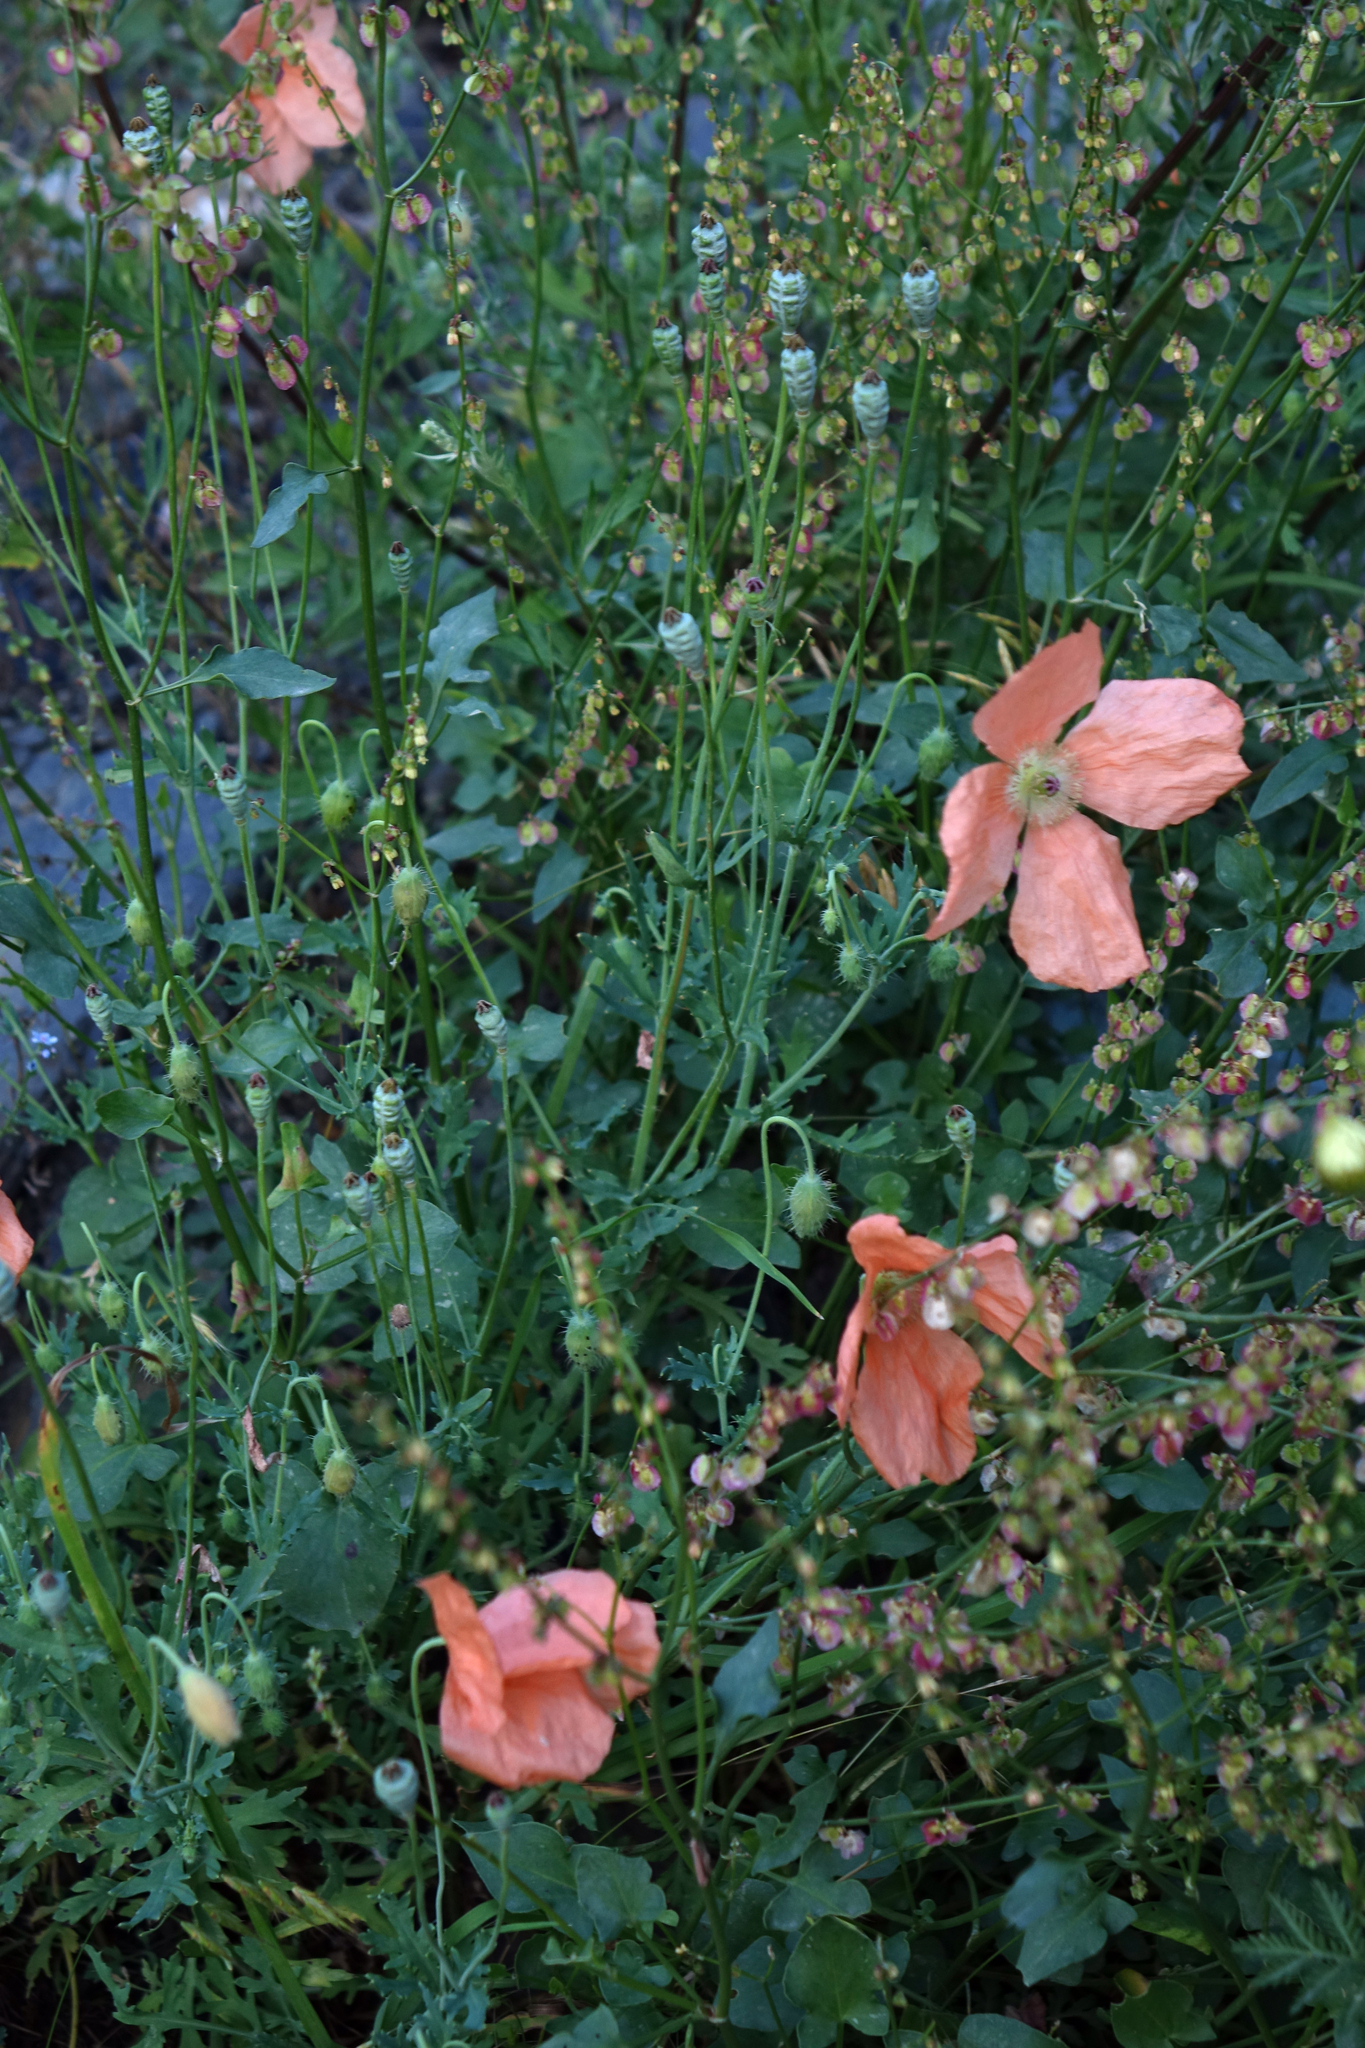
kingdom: Plantae
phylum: Tracheophyta
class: Magnoliopsida
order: Ranunculales
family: Papaveraceae
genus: Papaver
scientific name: Papaver armeniacum
